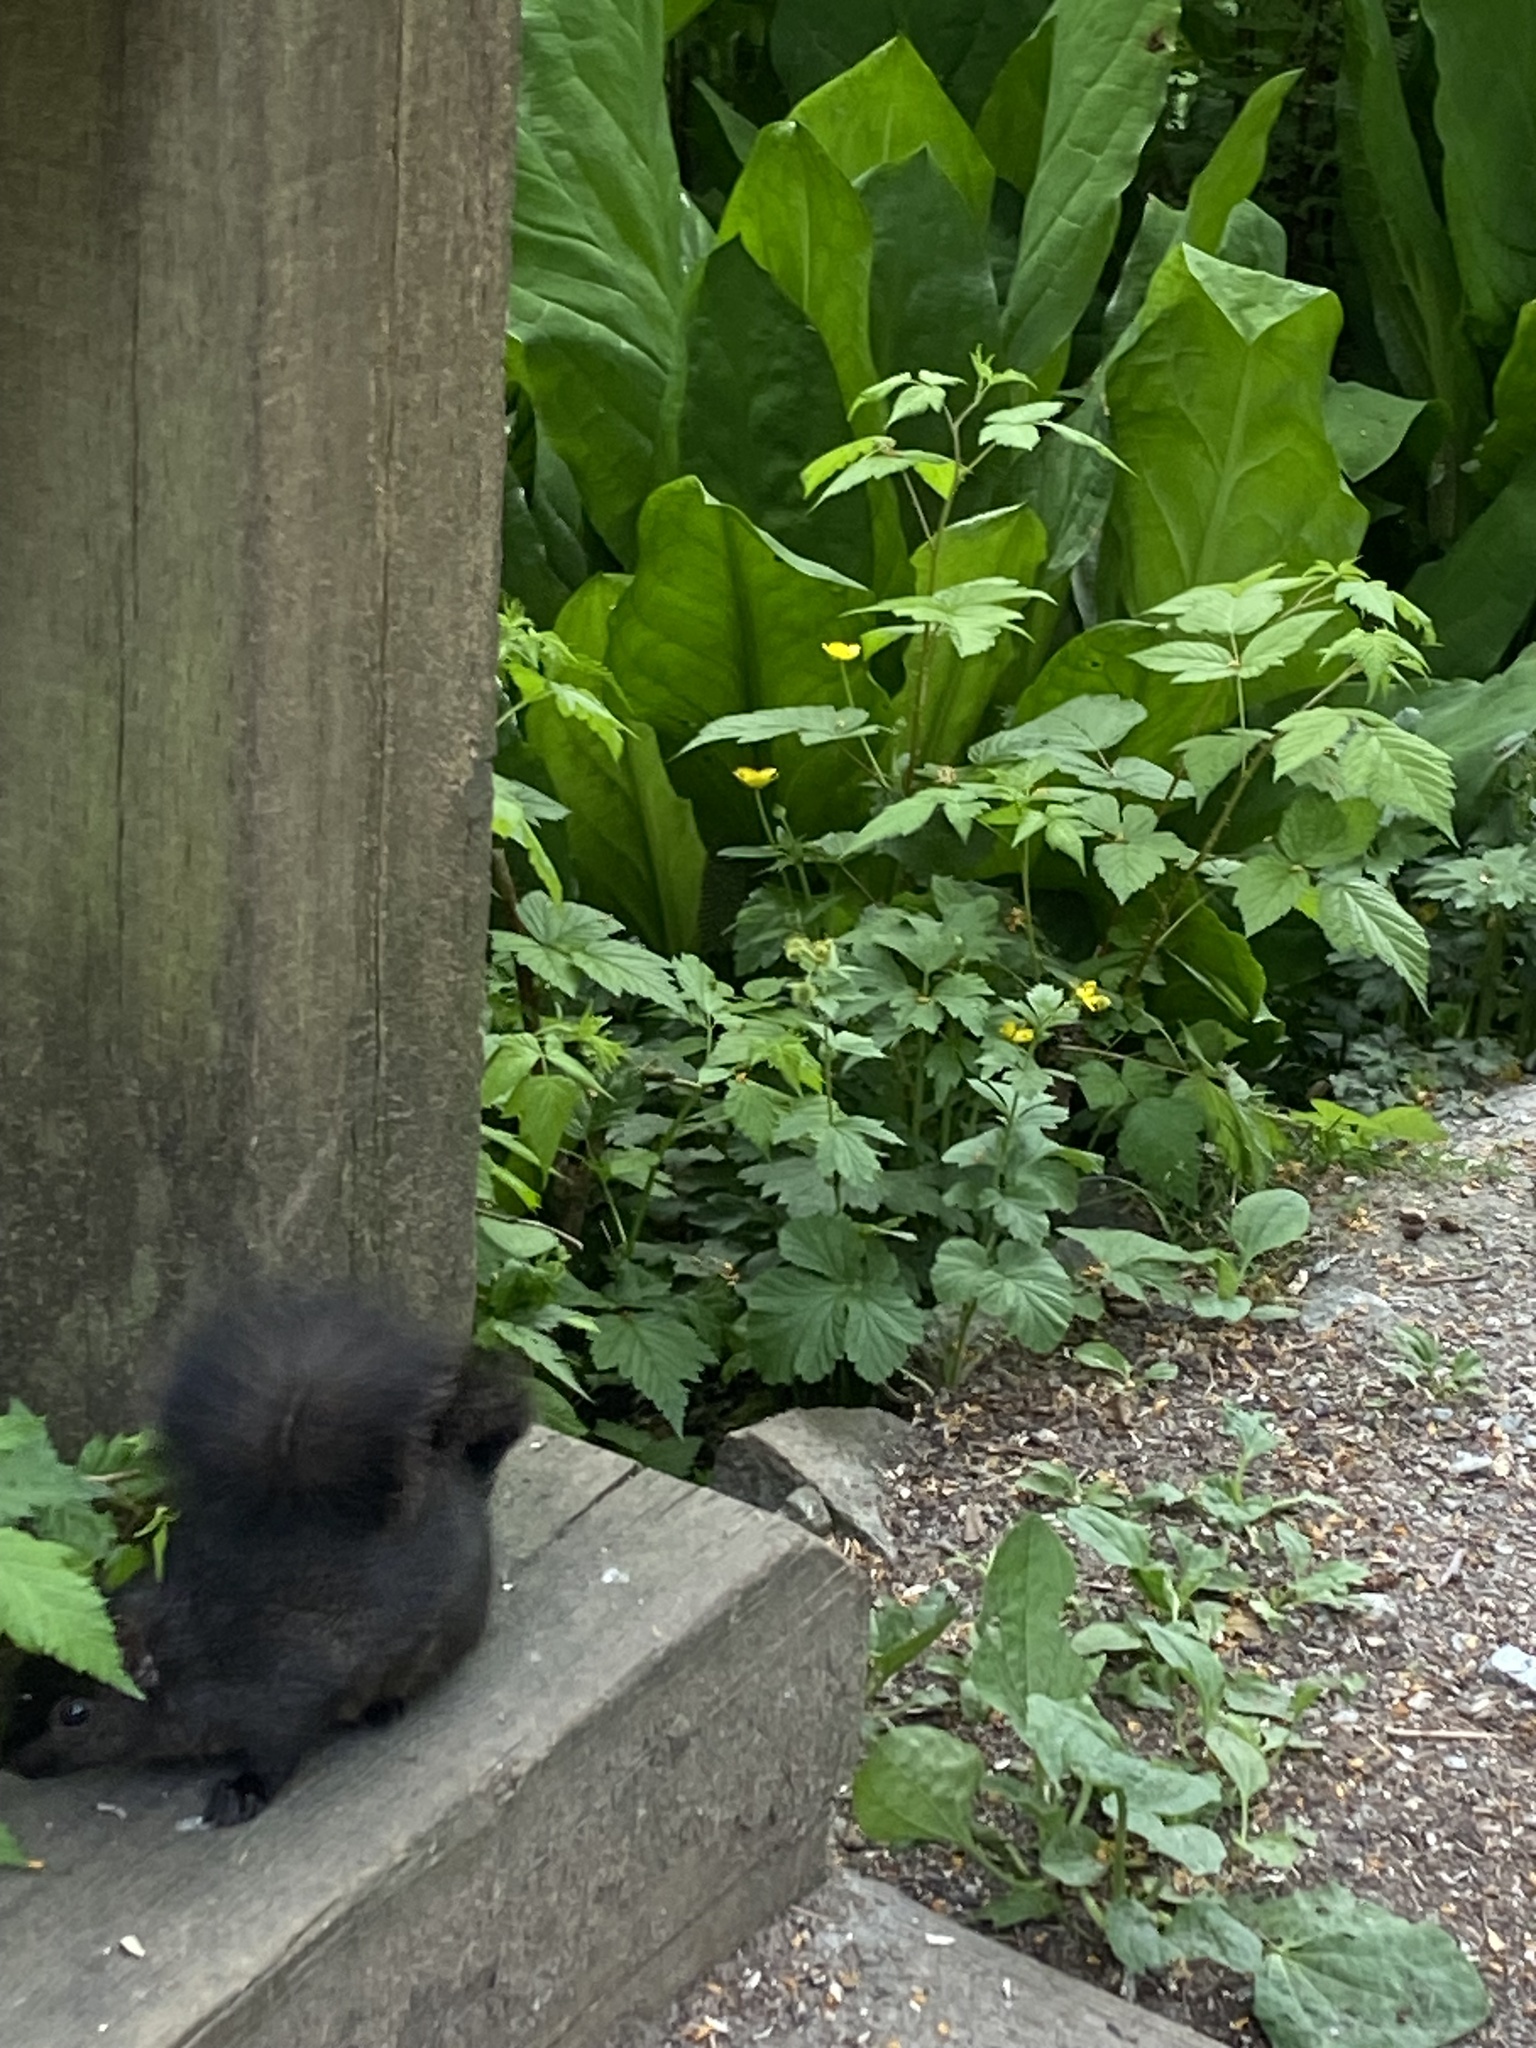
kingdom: Animalia
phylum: Chordata
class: Mammalia
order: Rodentia
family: Sciuridae
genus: Sciurus
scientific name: Sciurus carolinensis
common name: Eastern gray squirrel
